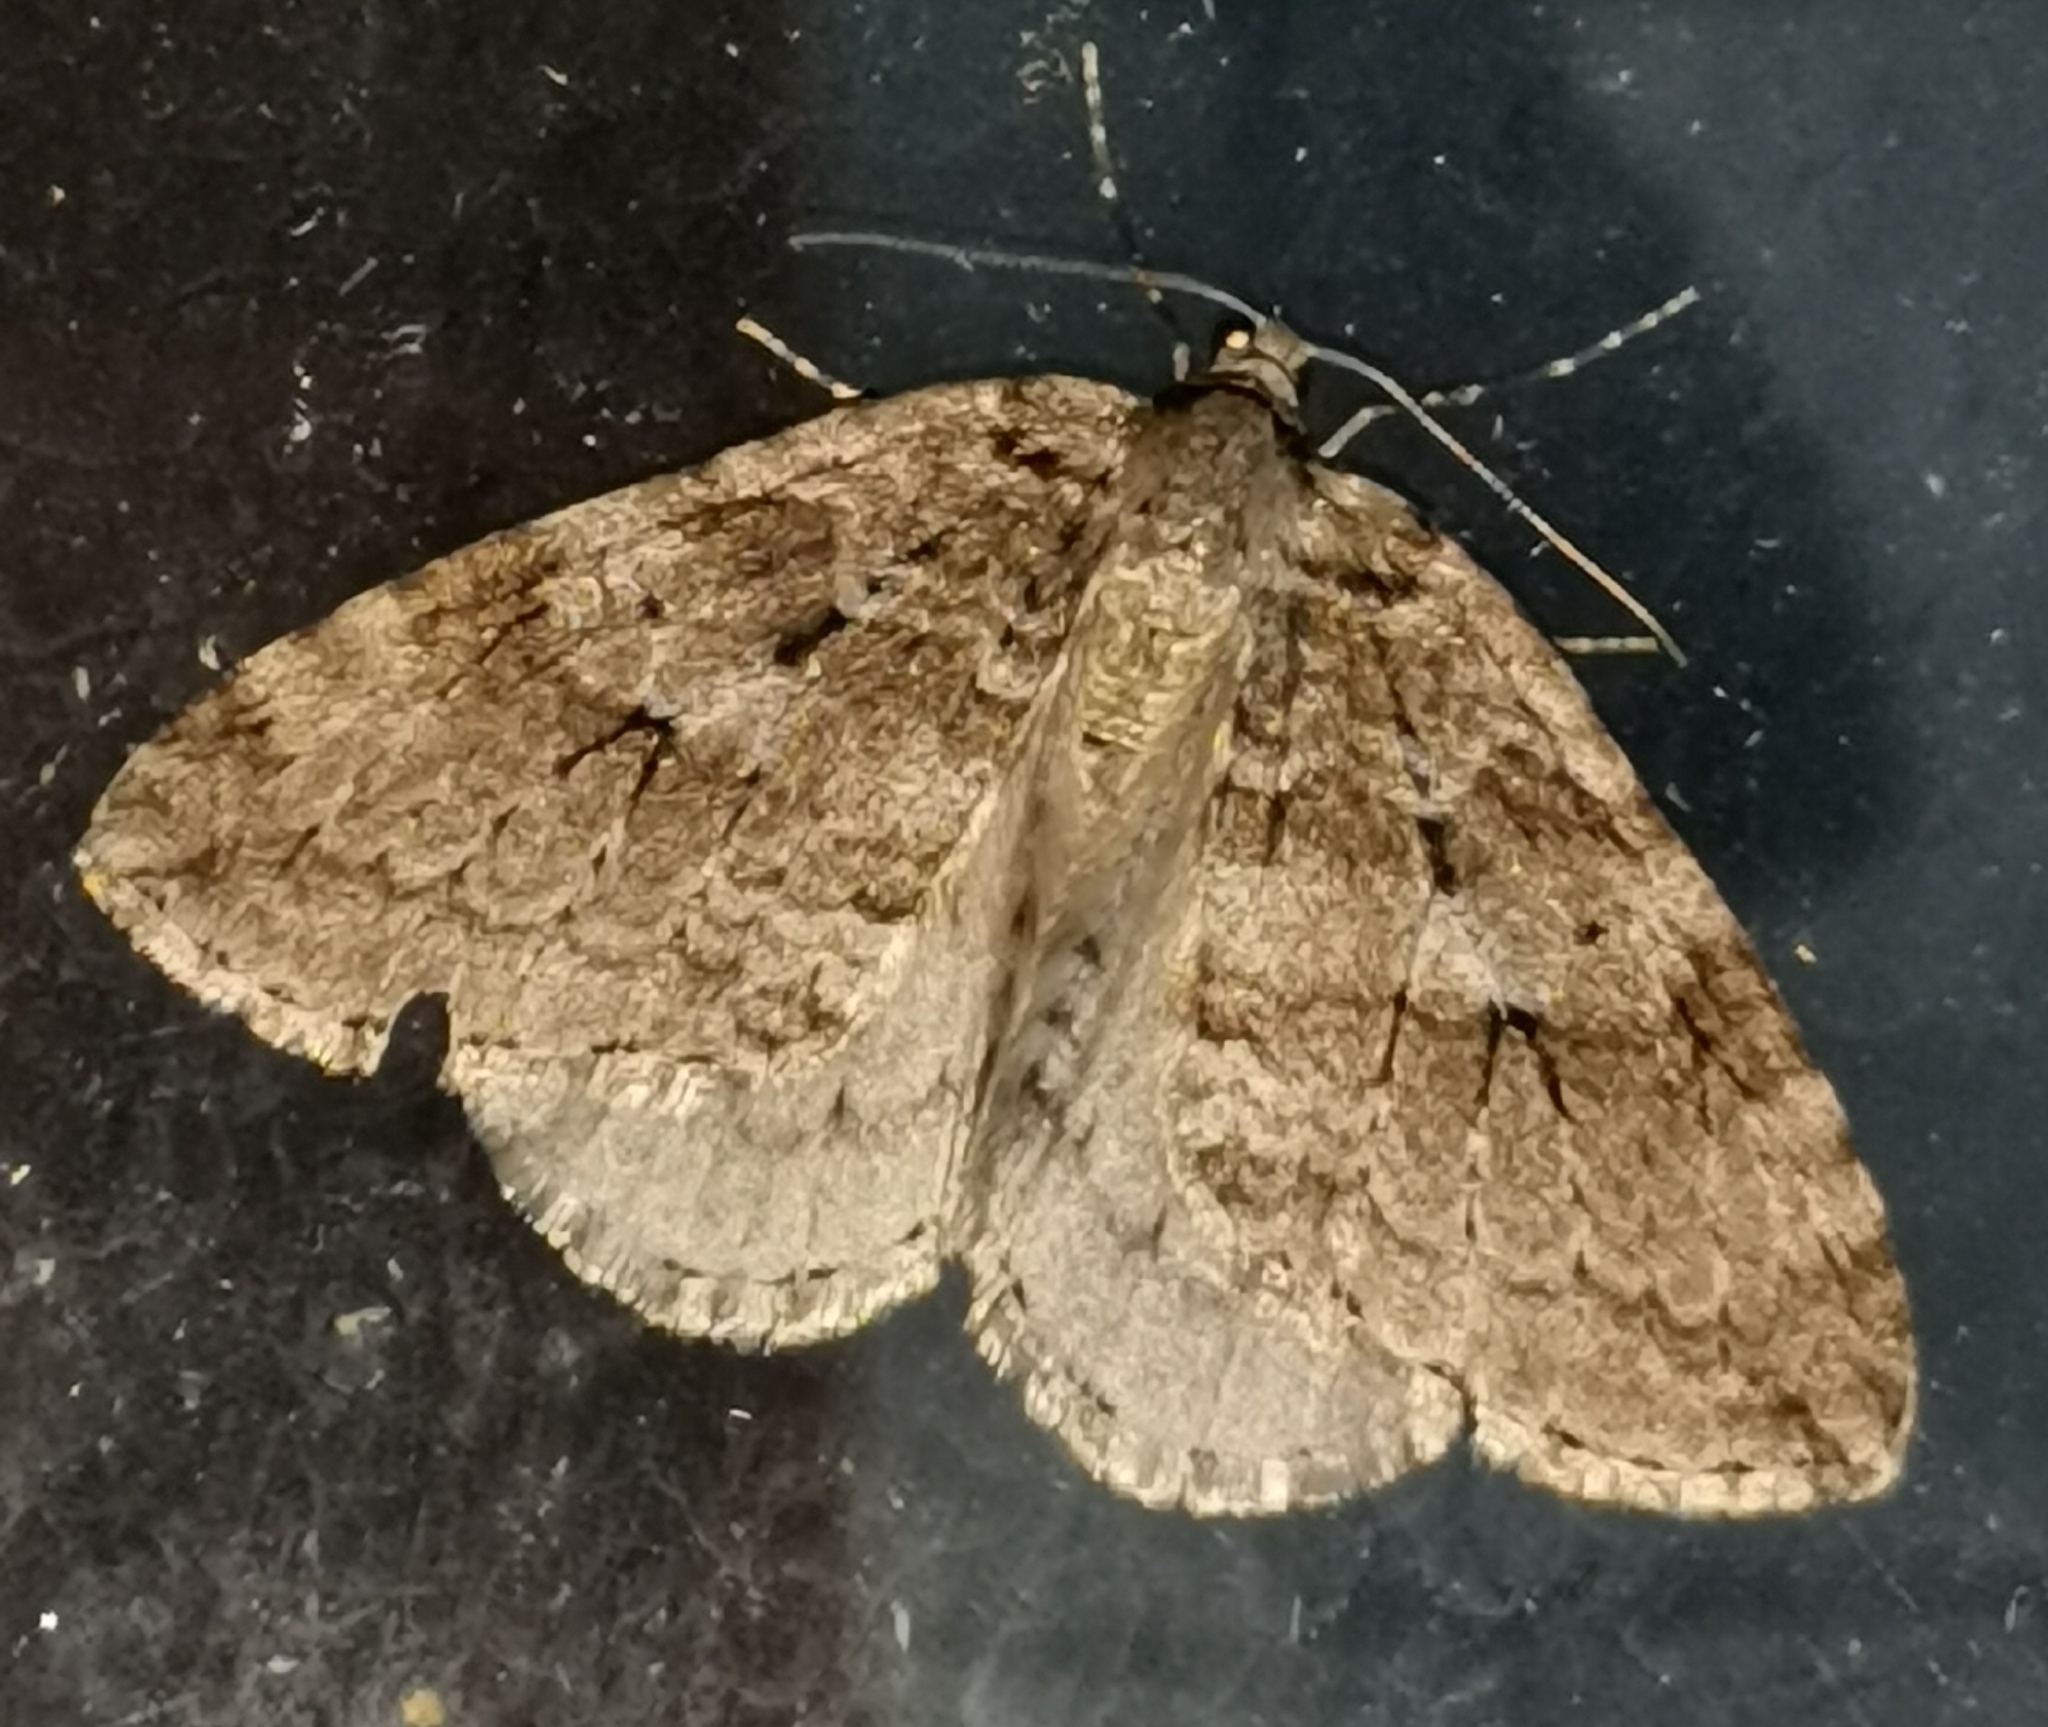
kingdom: Animalia
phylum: Arthropoda
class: Insecta
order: Lepidoptera
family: Geometridae
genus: Epirrita
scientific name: Epirrita autumnata
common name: Autumnal moth
